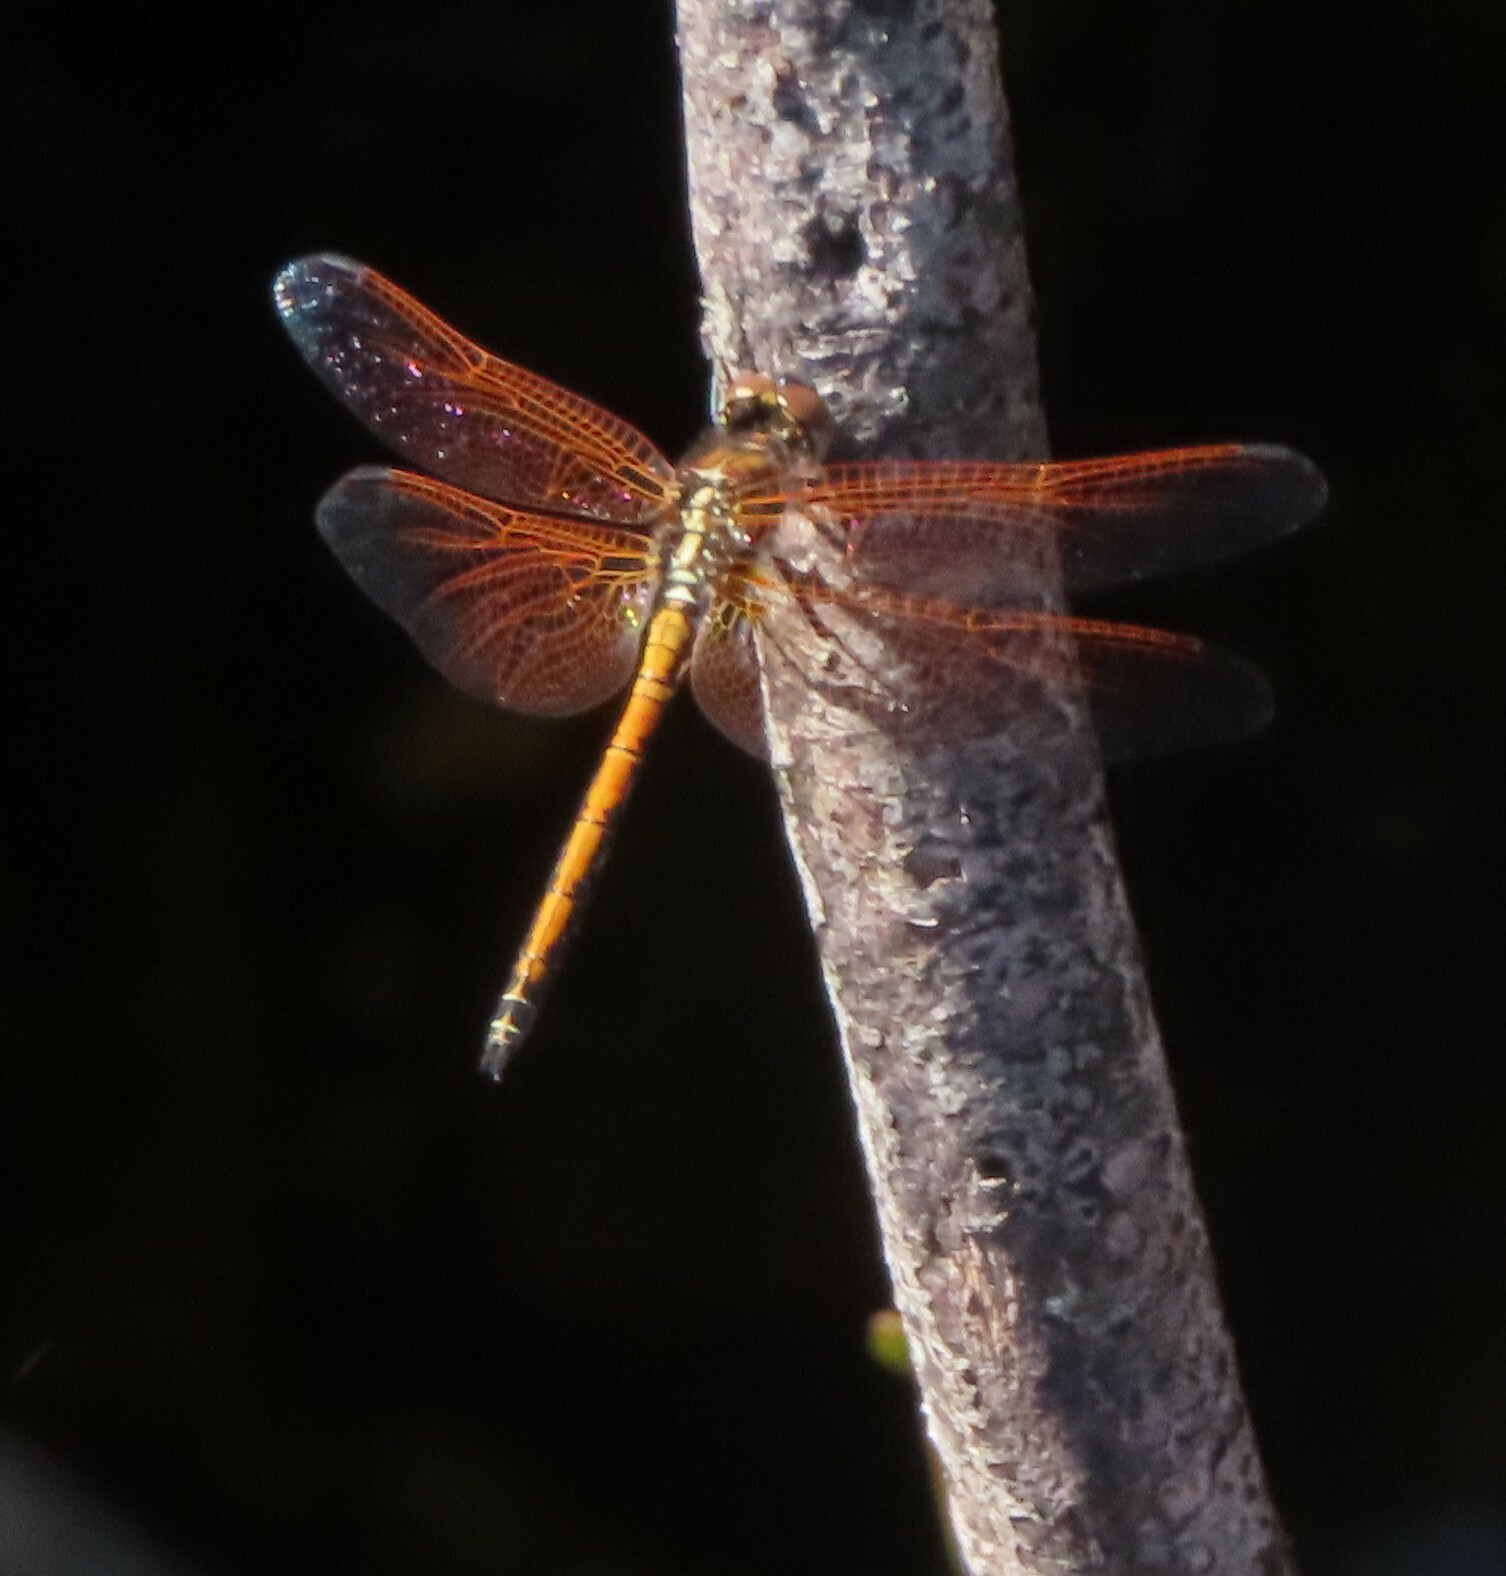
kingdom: Animalia
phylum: Arthropoda
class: Insecta
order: Odonata
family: Libellulidae
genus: Trithemis
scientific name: Trithemis arteriosa
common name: Red-veined dropwing
